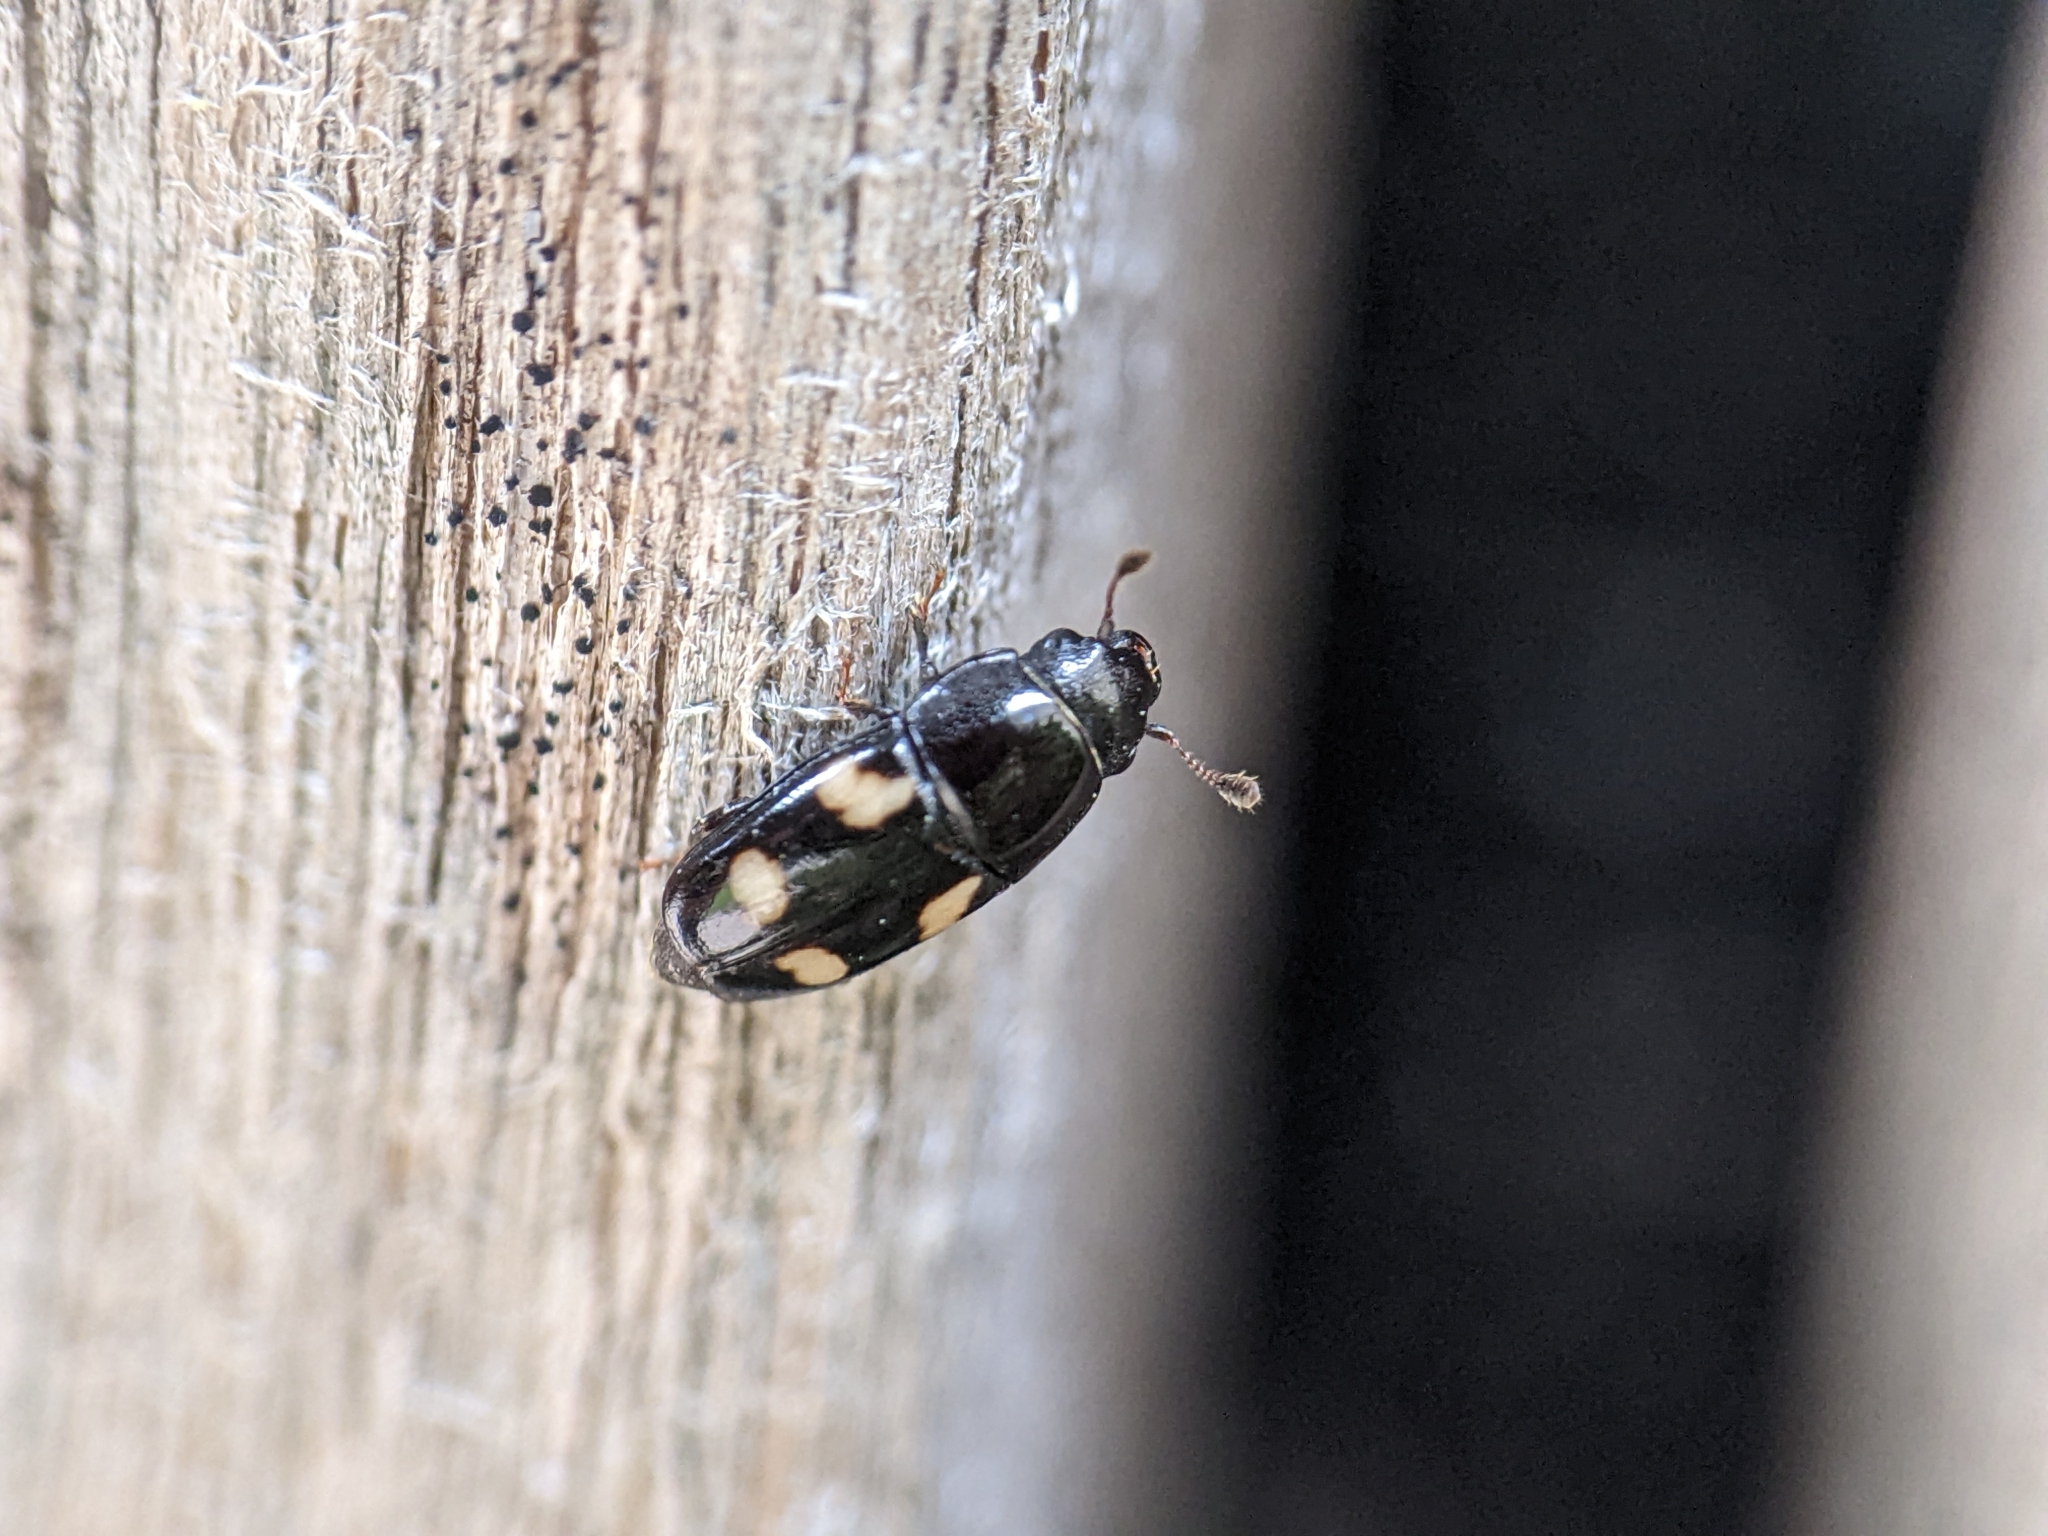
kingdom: Animalia
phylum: Arthropoda
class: Insecta
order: Coleoptera
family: Nitidulidae
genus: Glischrochilus
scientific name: Glischrochilus quadrisignatus
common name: Picnic beetle
